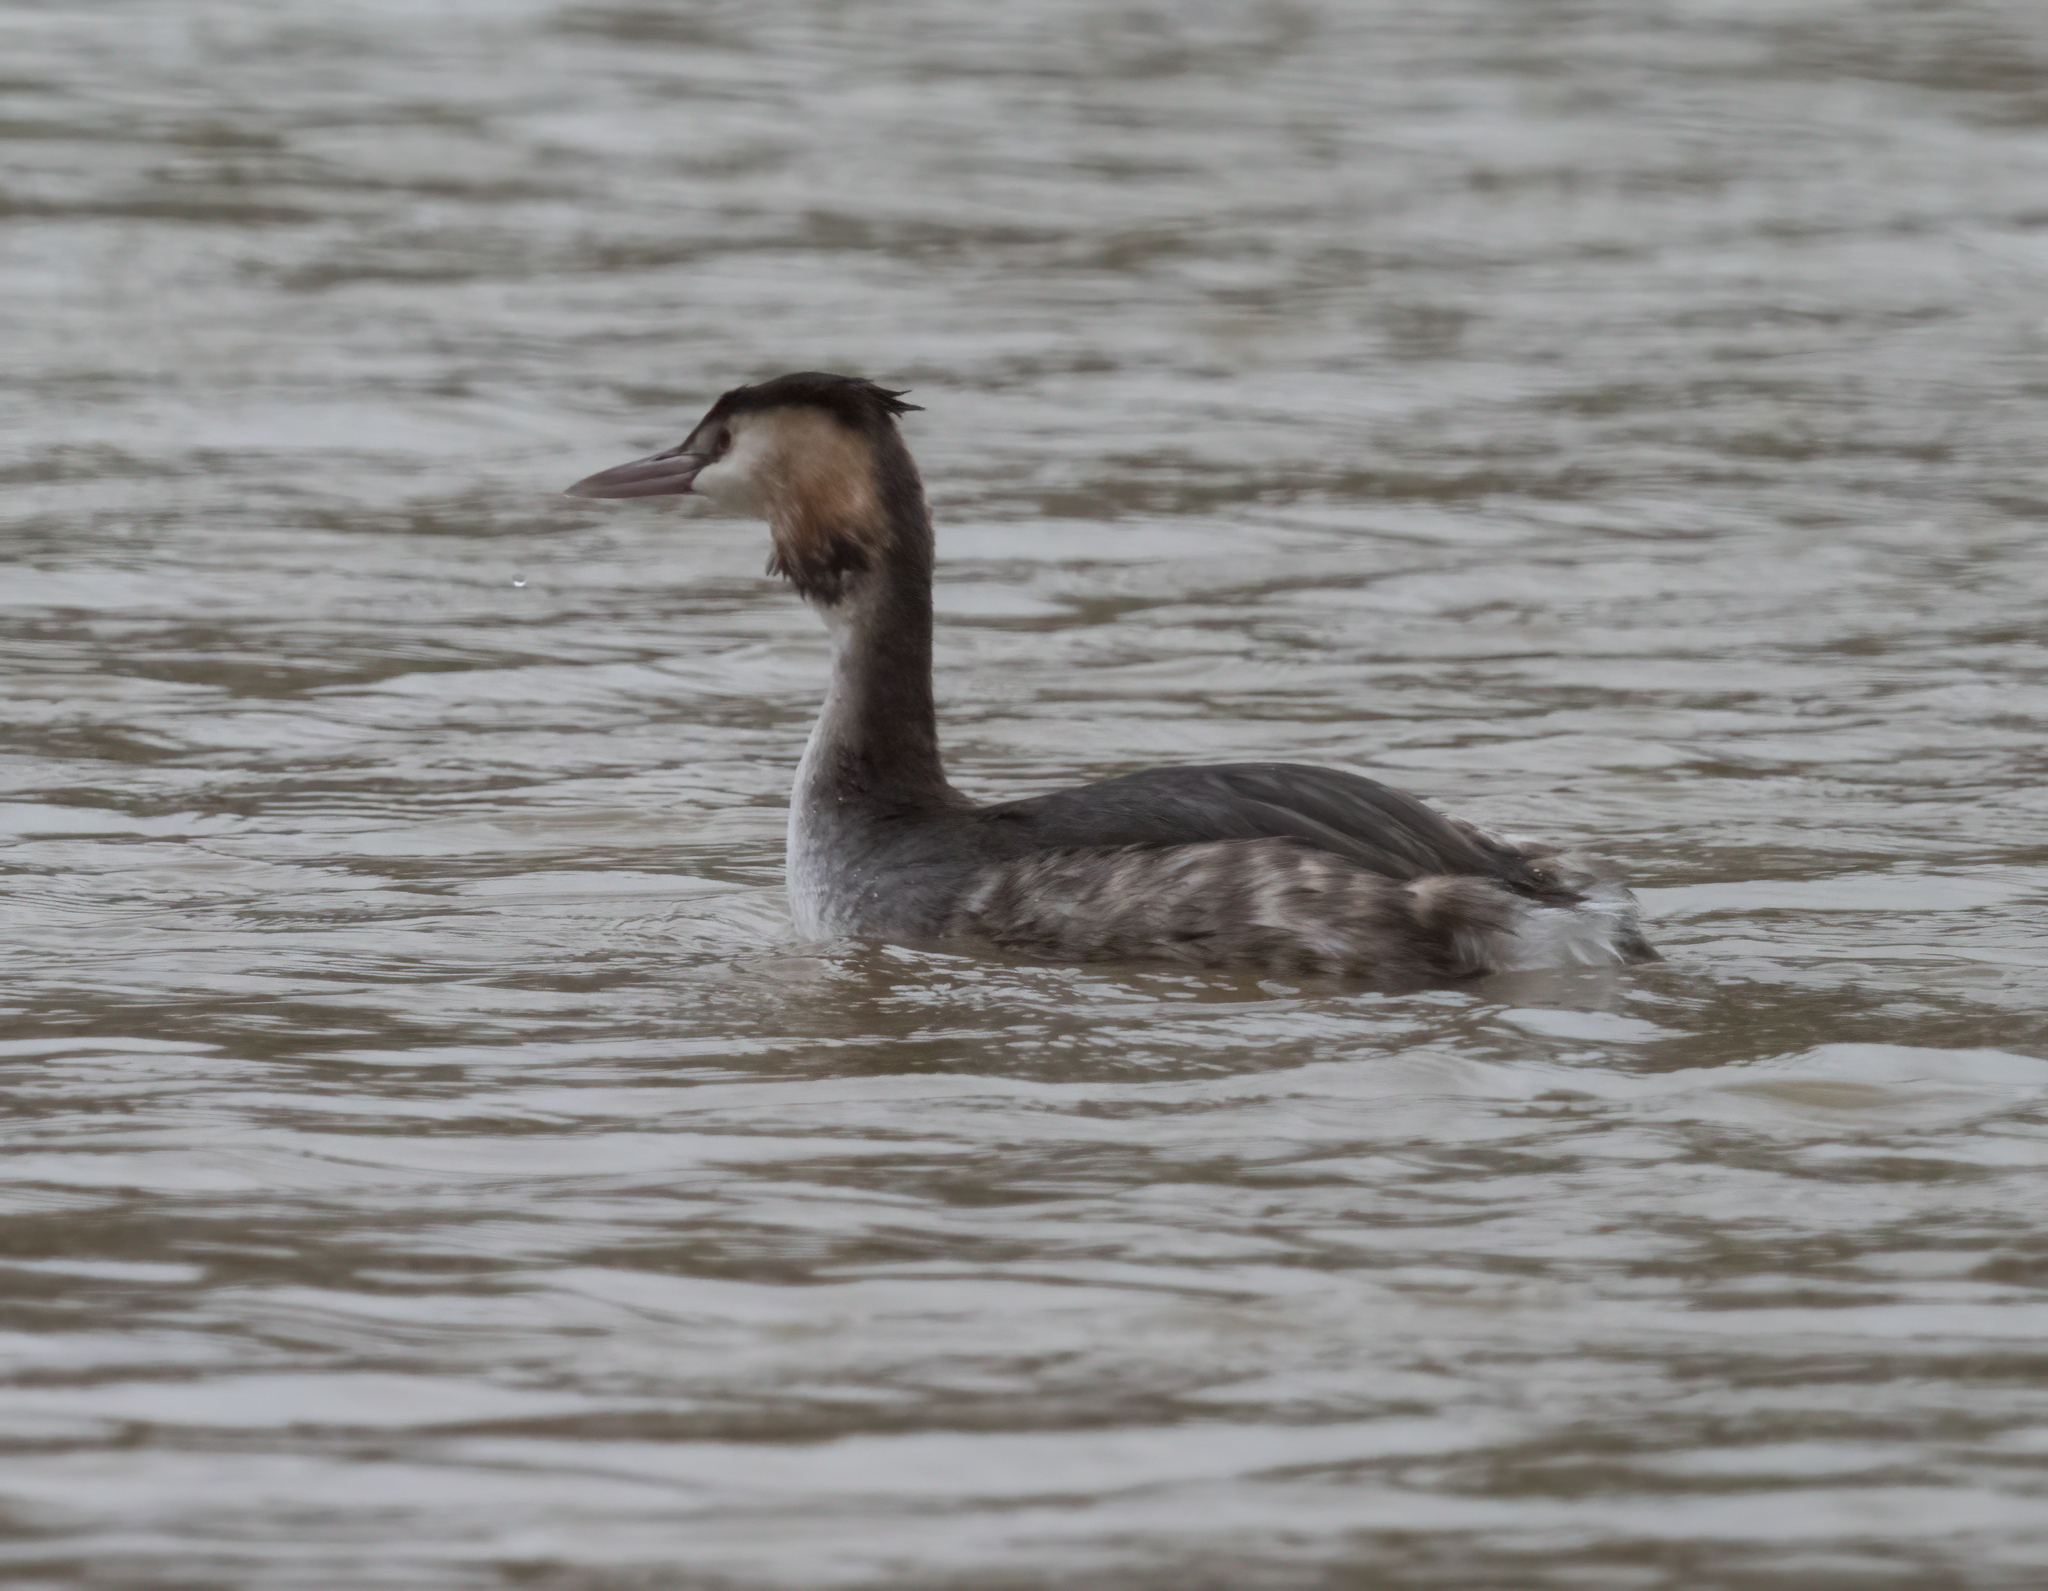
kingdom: Animalia
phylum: Chordata
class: Aves
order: Podicipediformes
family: Podicipedidae
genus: Podiceps
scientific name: Podiceps cristatus
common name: Great crested grebe
